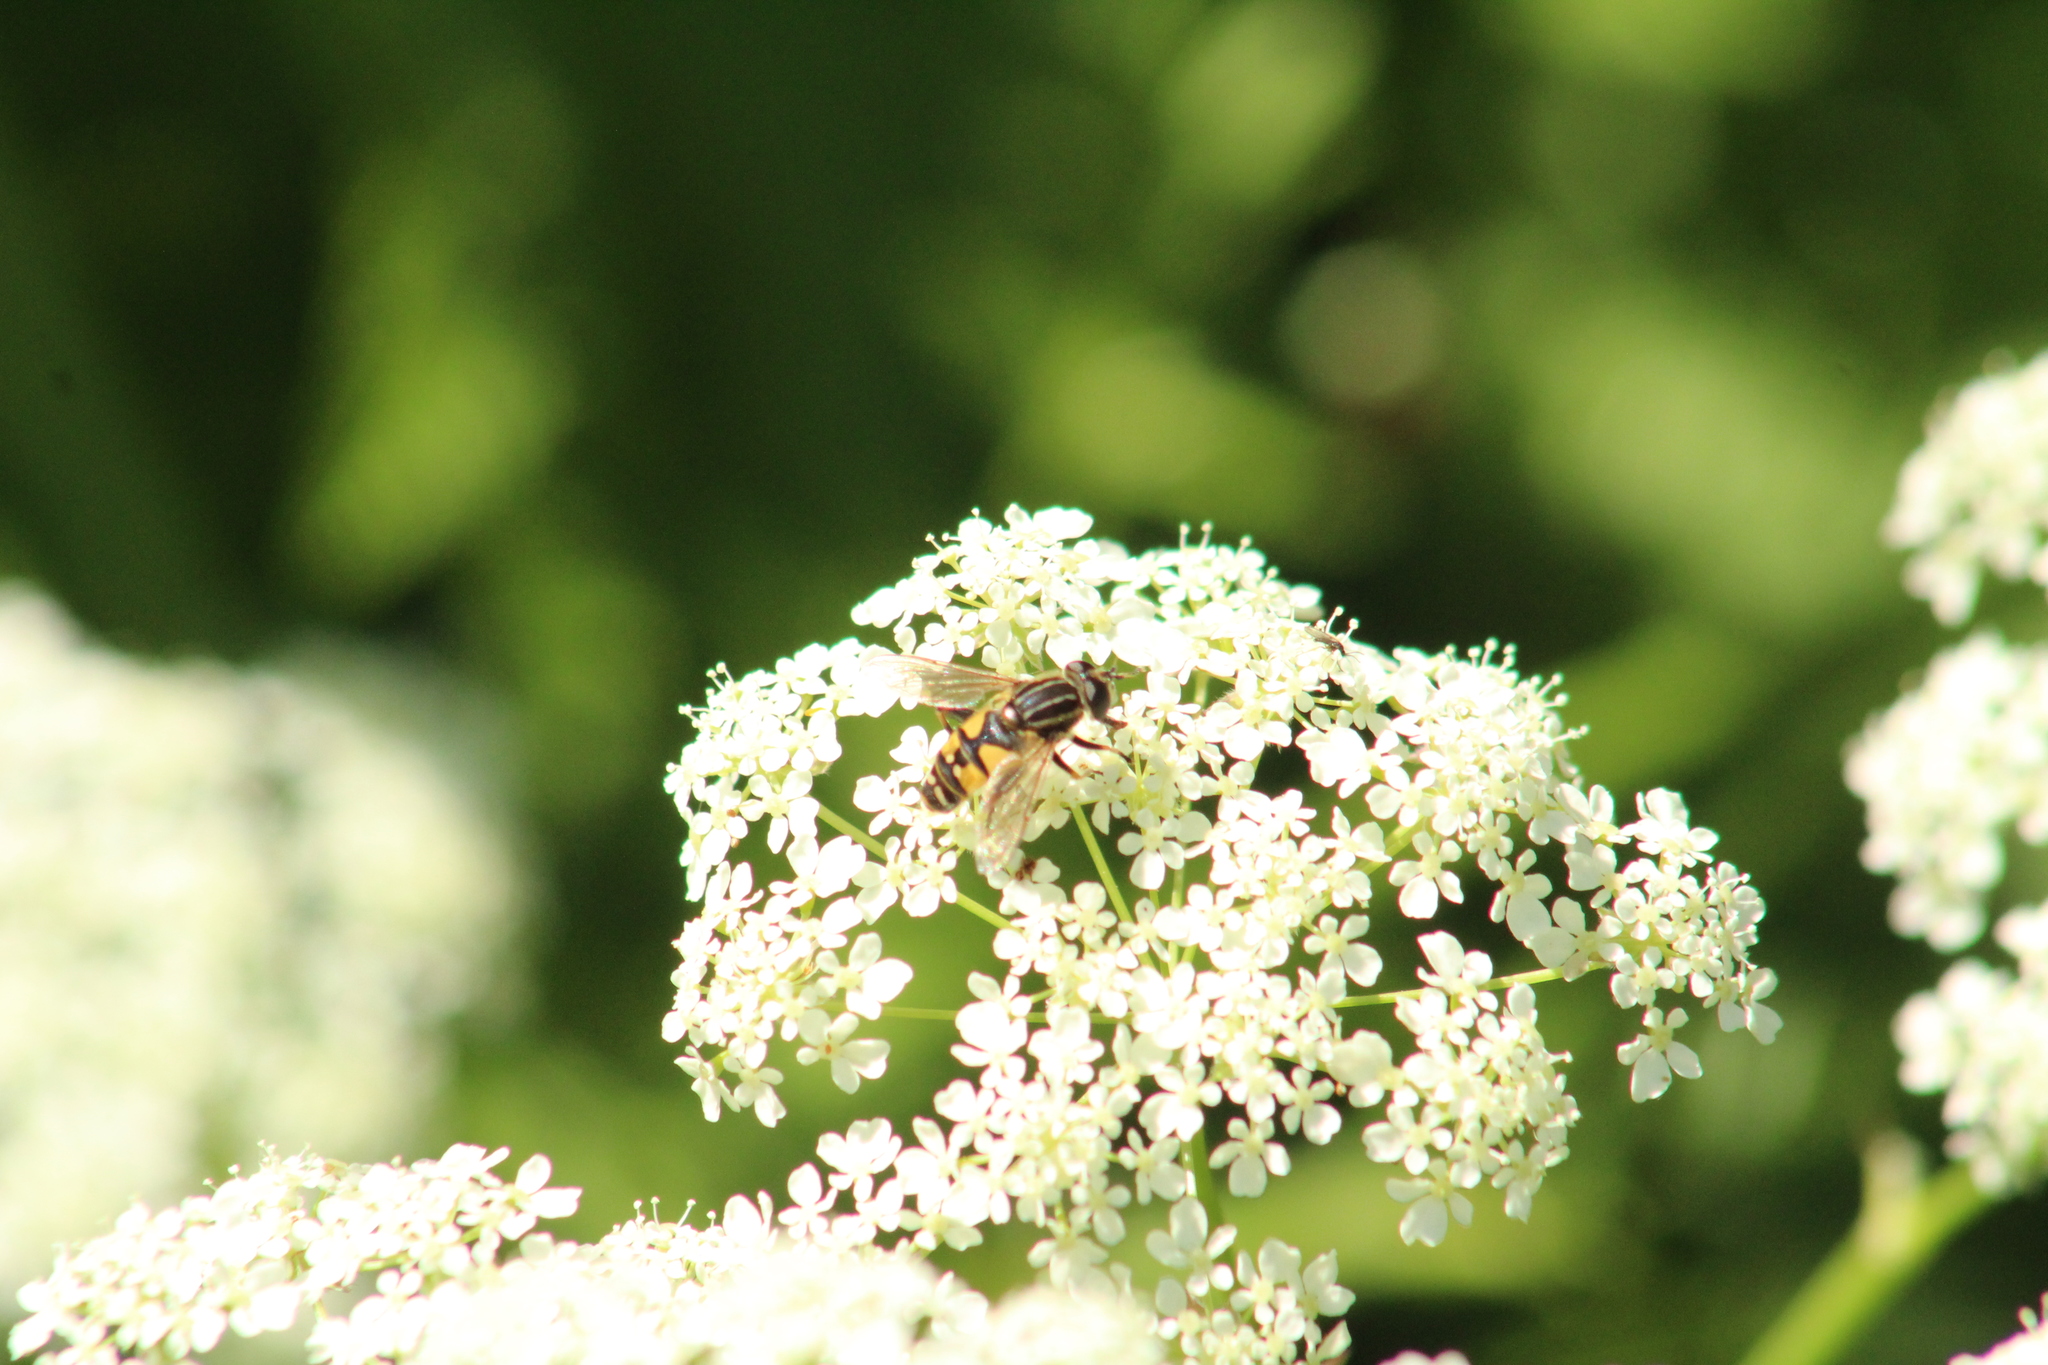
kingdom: Animalia
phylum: Arthropoda
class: Insecta
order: Diptera
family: Syrphidae
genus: Helophilus
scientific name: Helophilus pendulus
